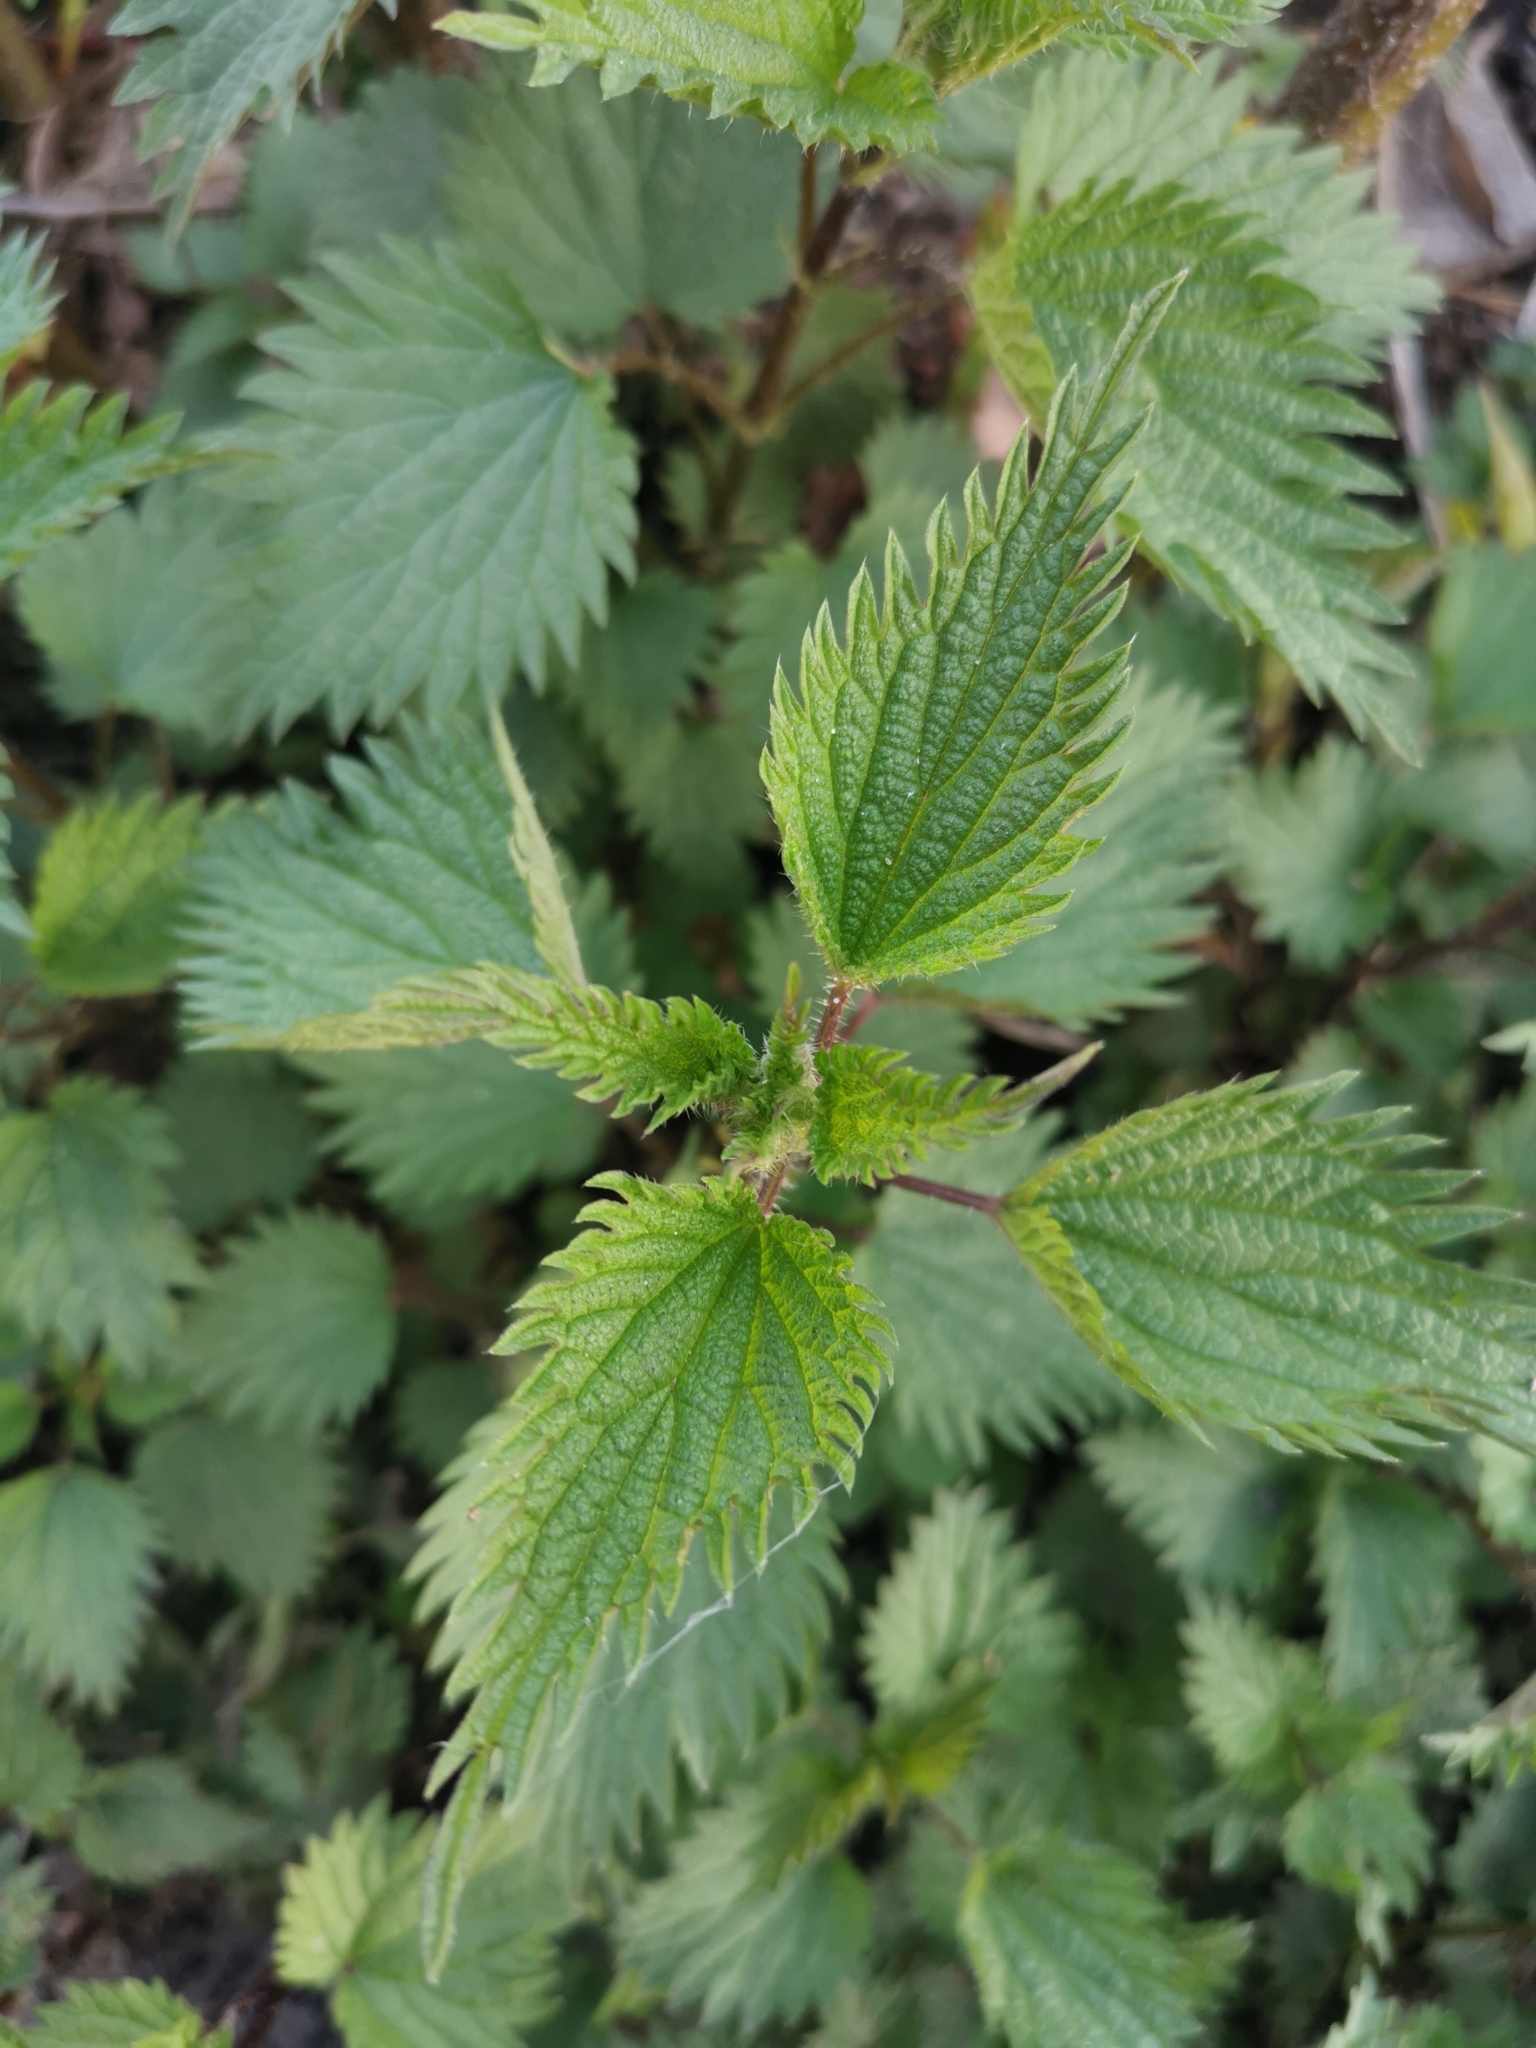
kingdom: Plantae
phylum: Tracheophyta
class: Magnoliopsida
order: Rosales
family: Urticaceae
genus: Urtica
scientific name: Urtica dioica
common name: Common nettle
